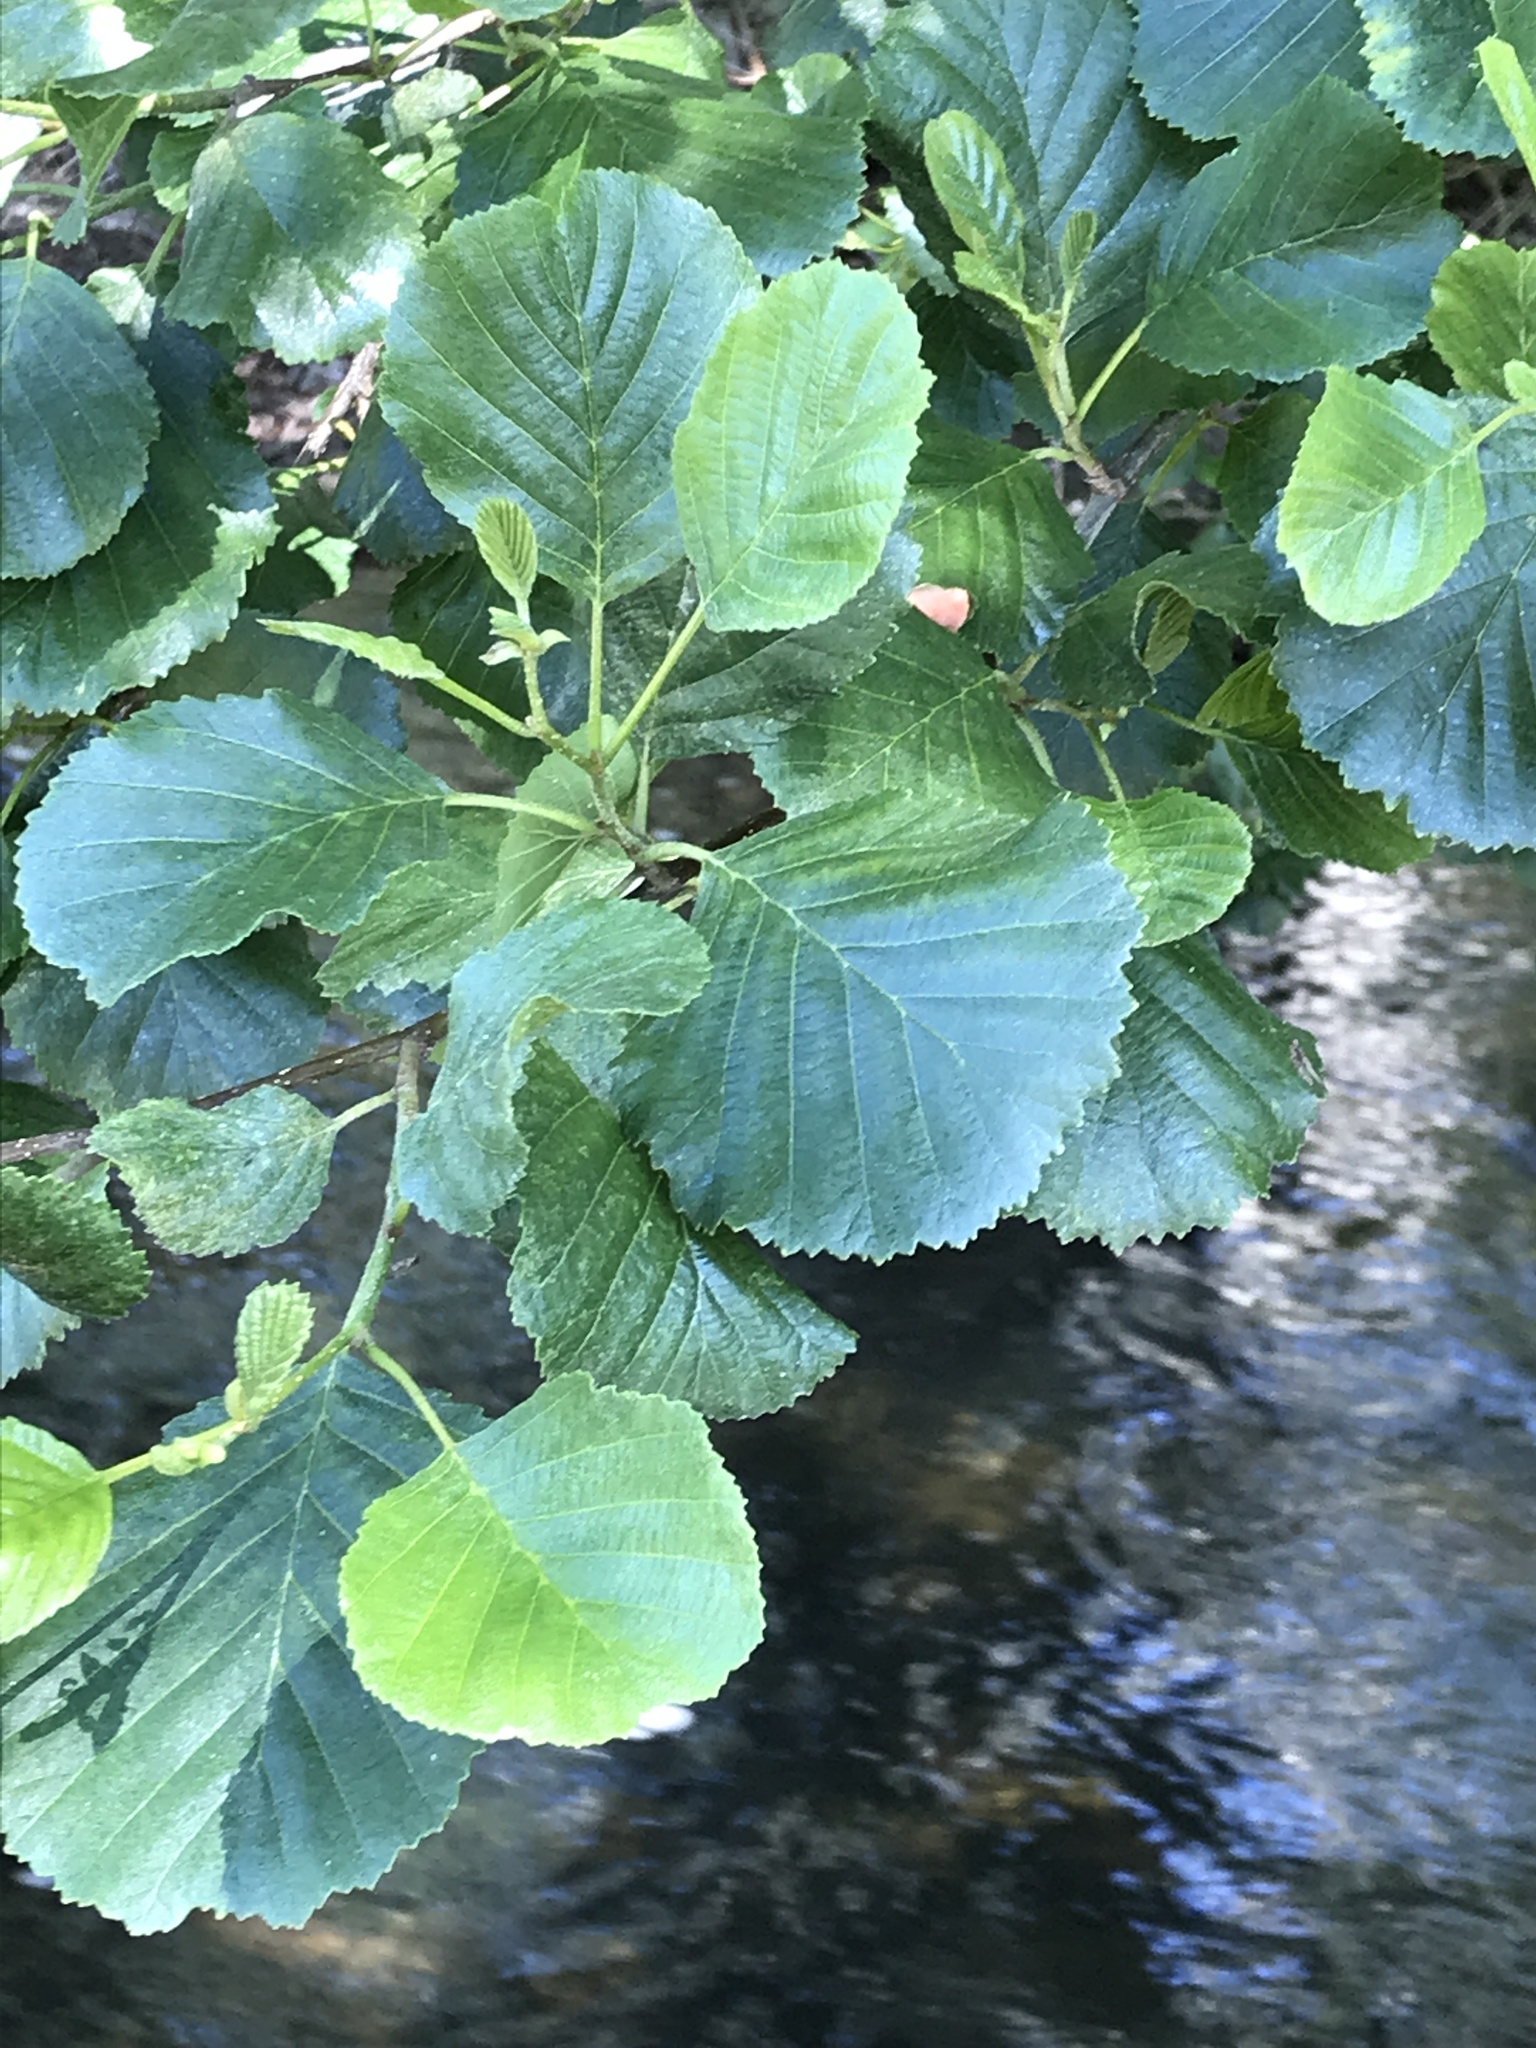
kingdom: Plantae
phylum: Tracheophyta
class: Magnoliopsida
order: Fagales
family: Betulaceae
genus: Alnus
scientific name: Alnus glutinosa
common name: Black alder
